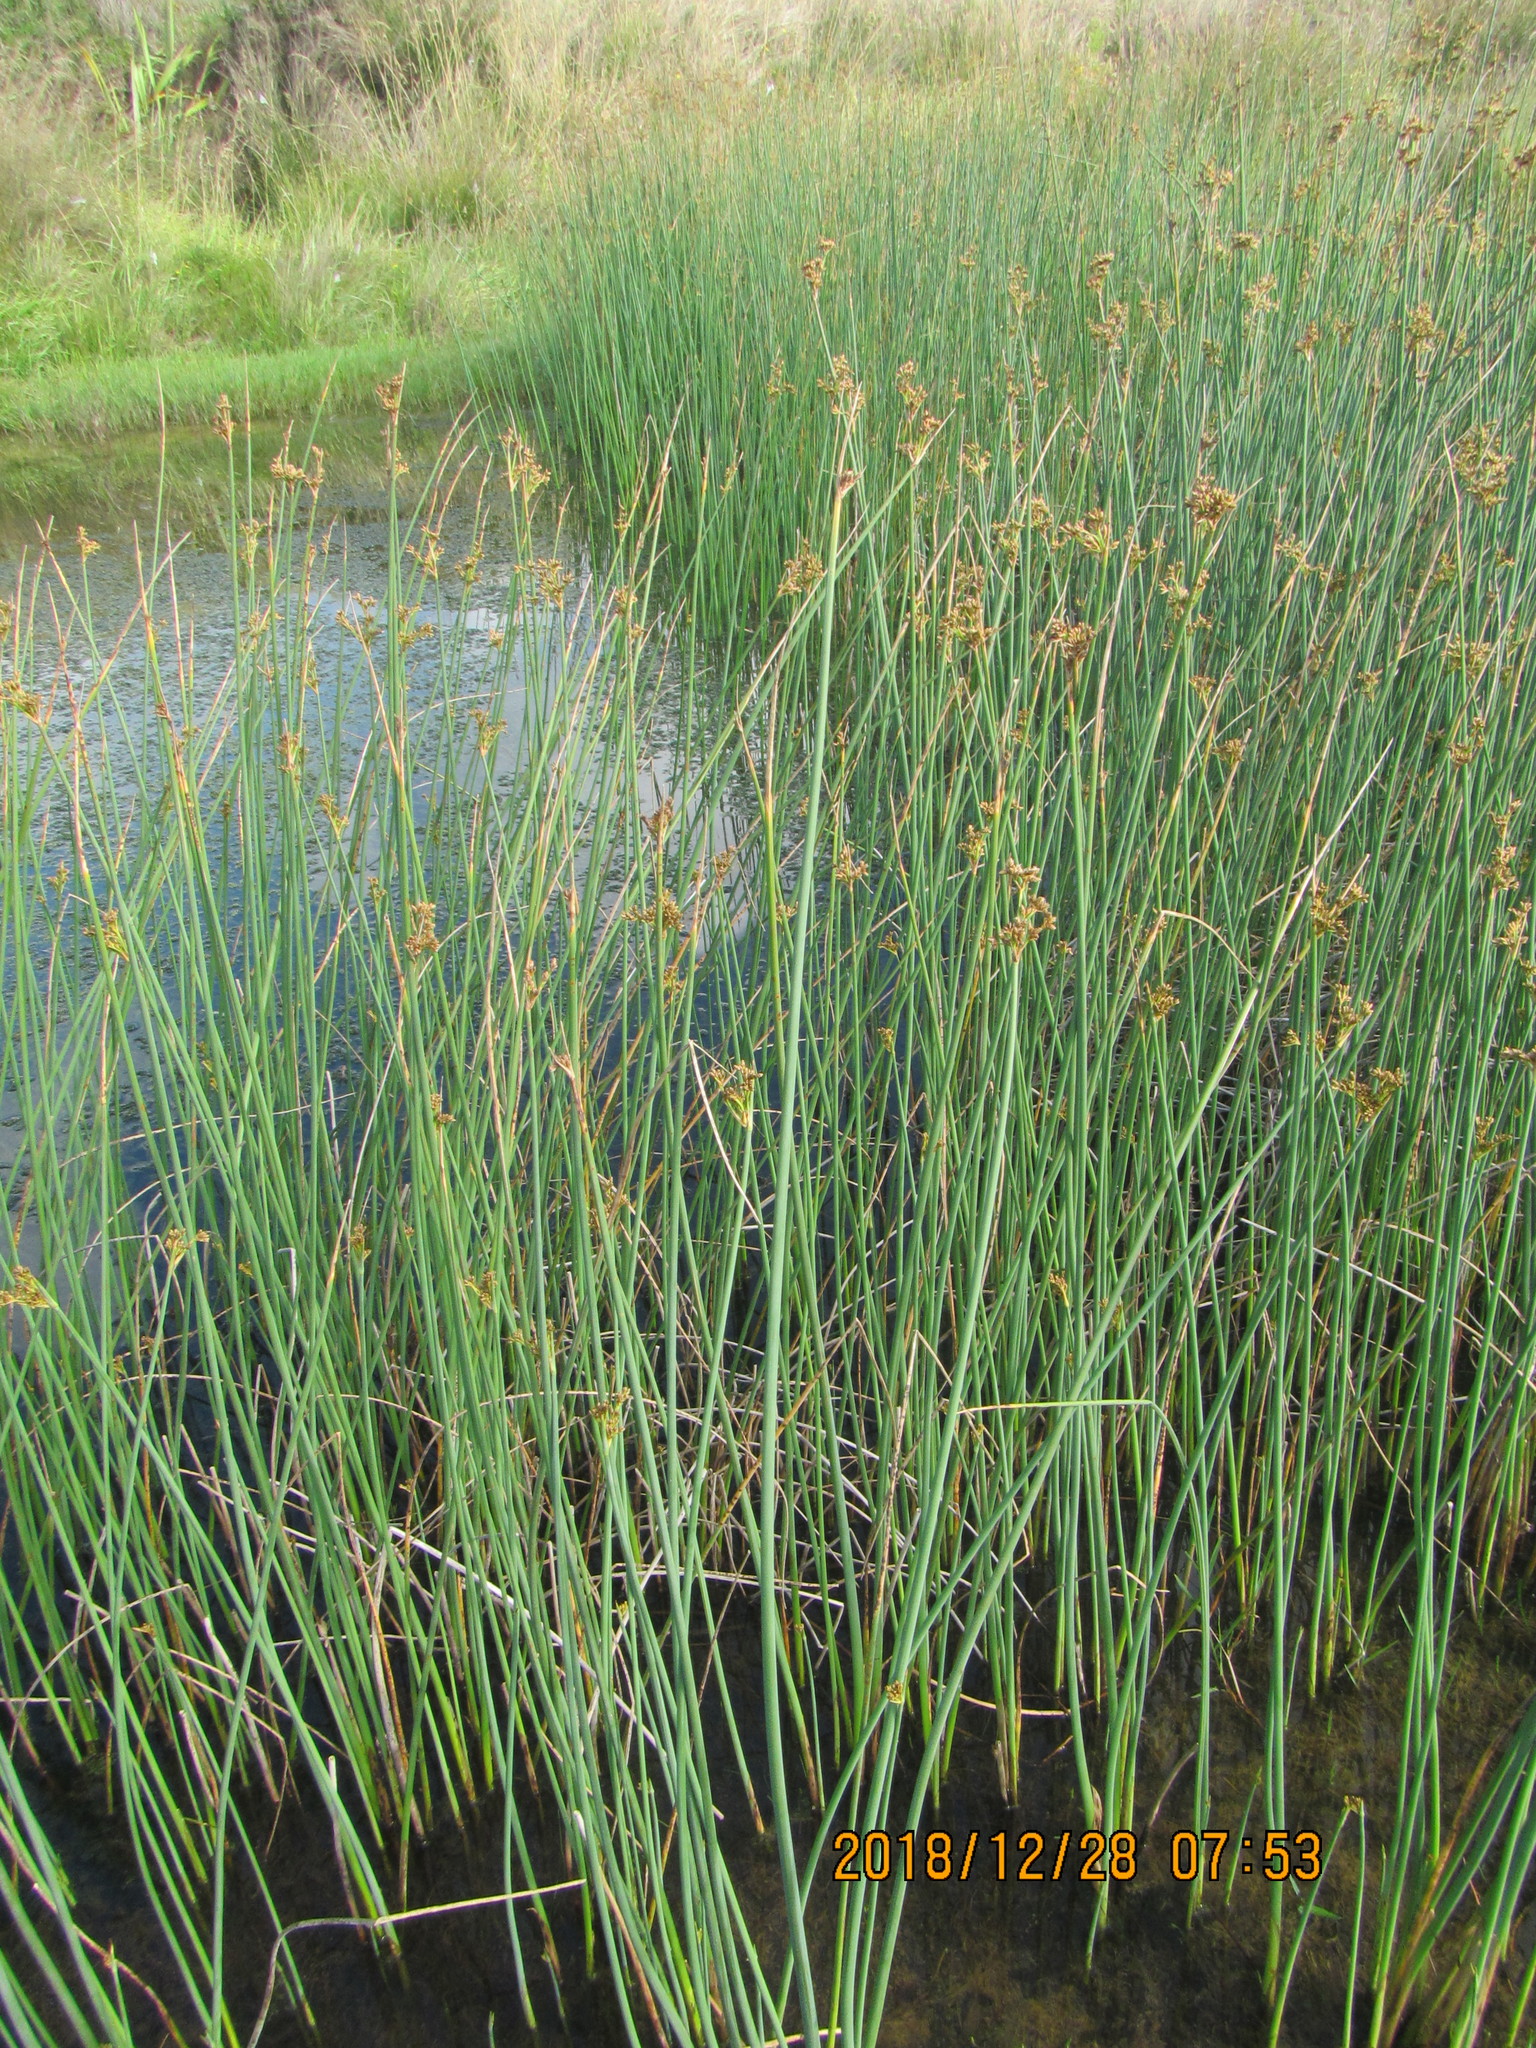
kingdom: Plantae
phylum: Tracheophyta
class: Liliopsida
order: Poales
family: Cyperaceae
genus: Schoenoplectus
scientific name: Schoenoplectus tabernaemontani
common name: Grey club-rush
